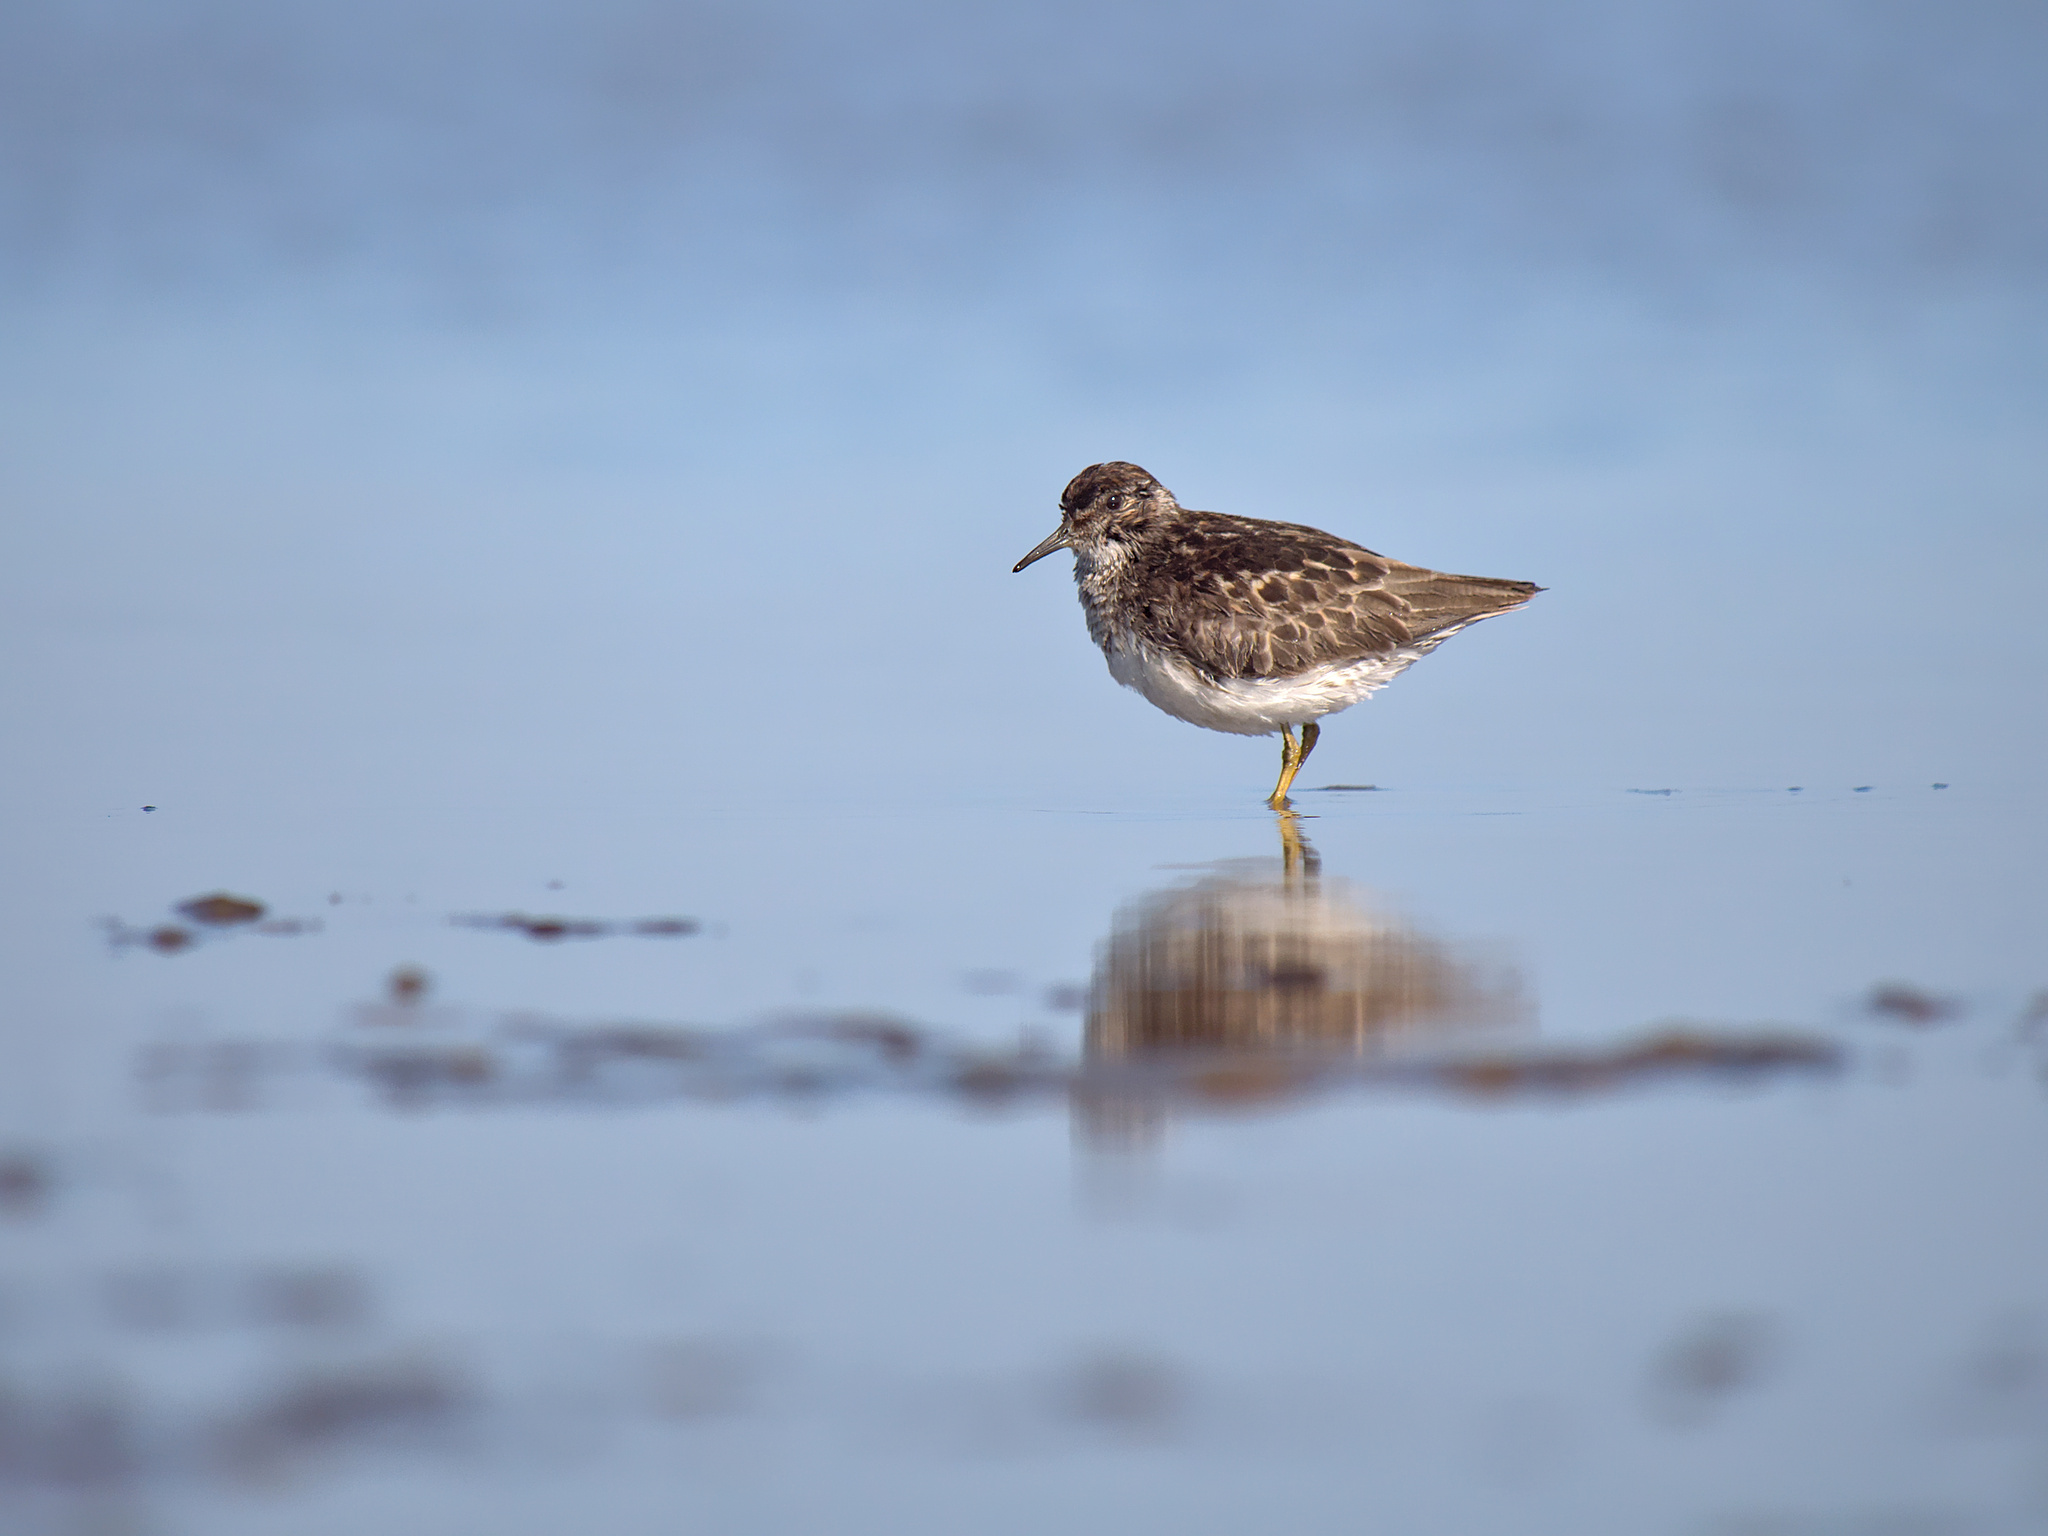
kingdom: Animalia
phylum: Chordata
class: Aves
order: Charadriiformes
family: Scolopacidae
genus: Calidris
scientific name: Calidris minutilla
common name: Least sandpiper
